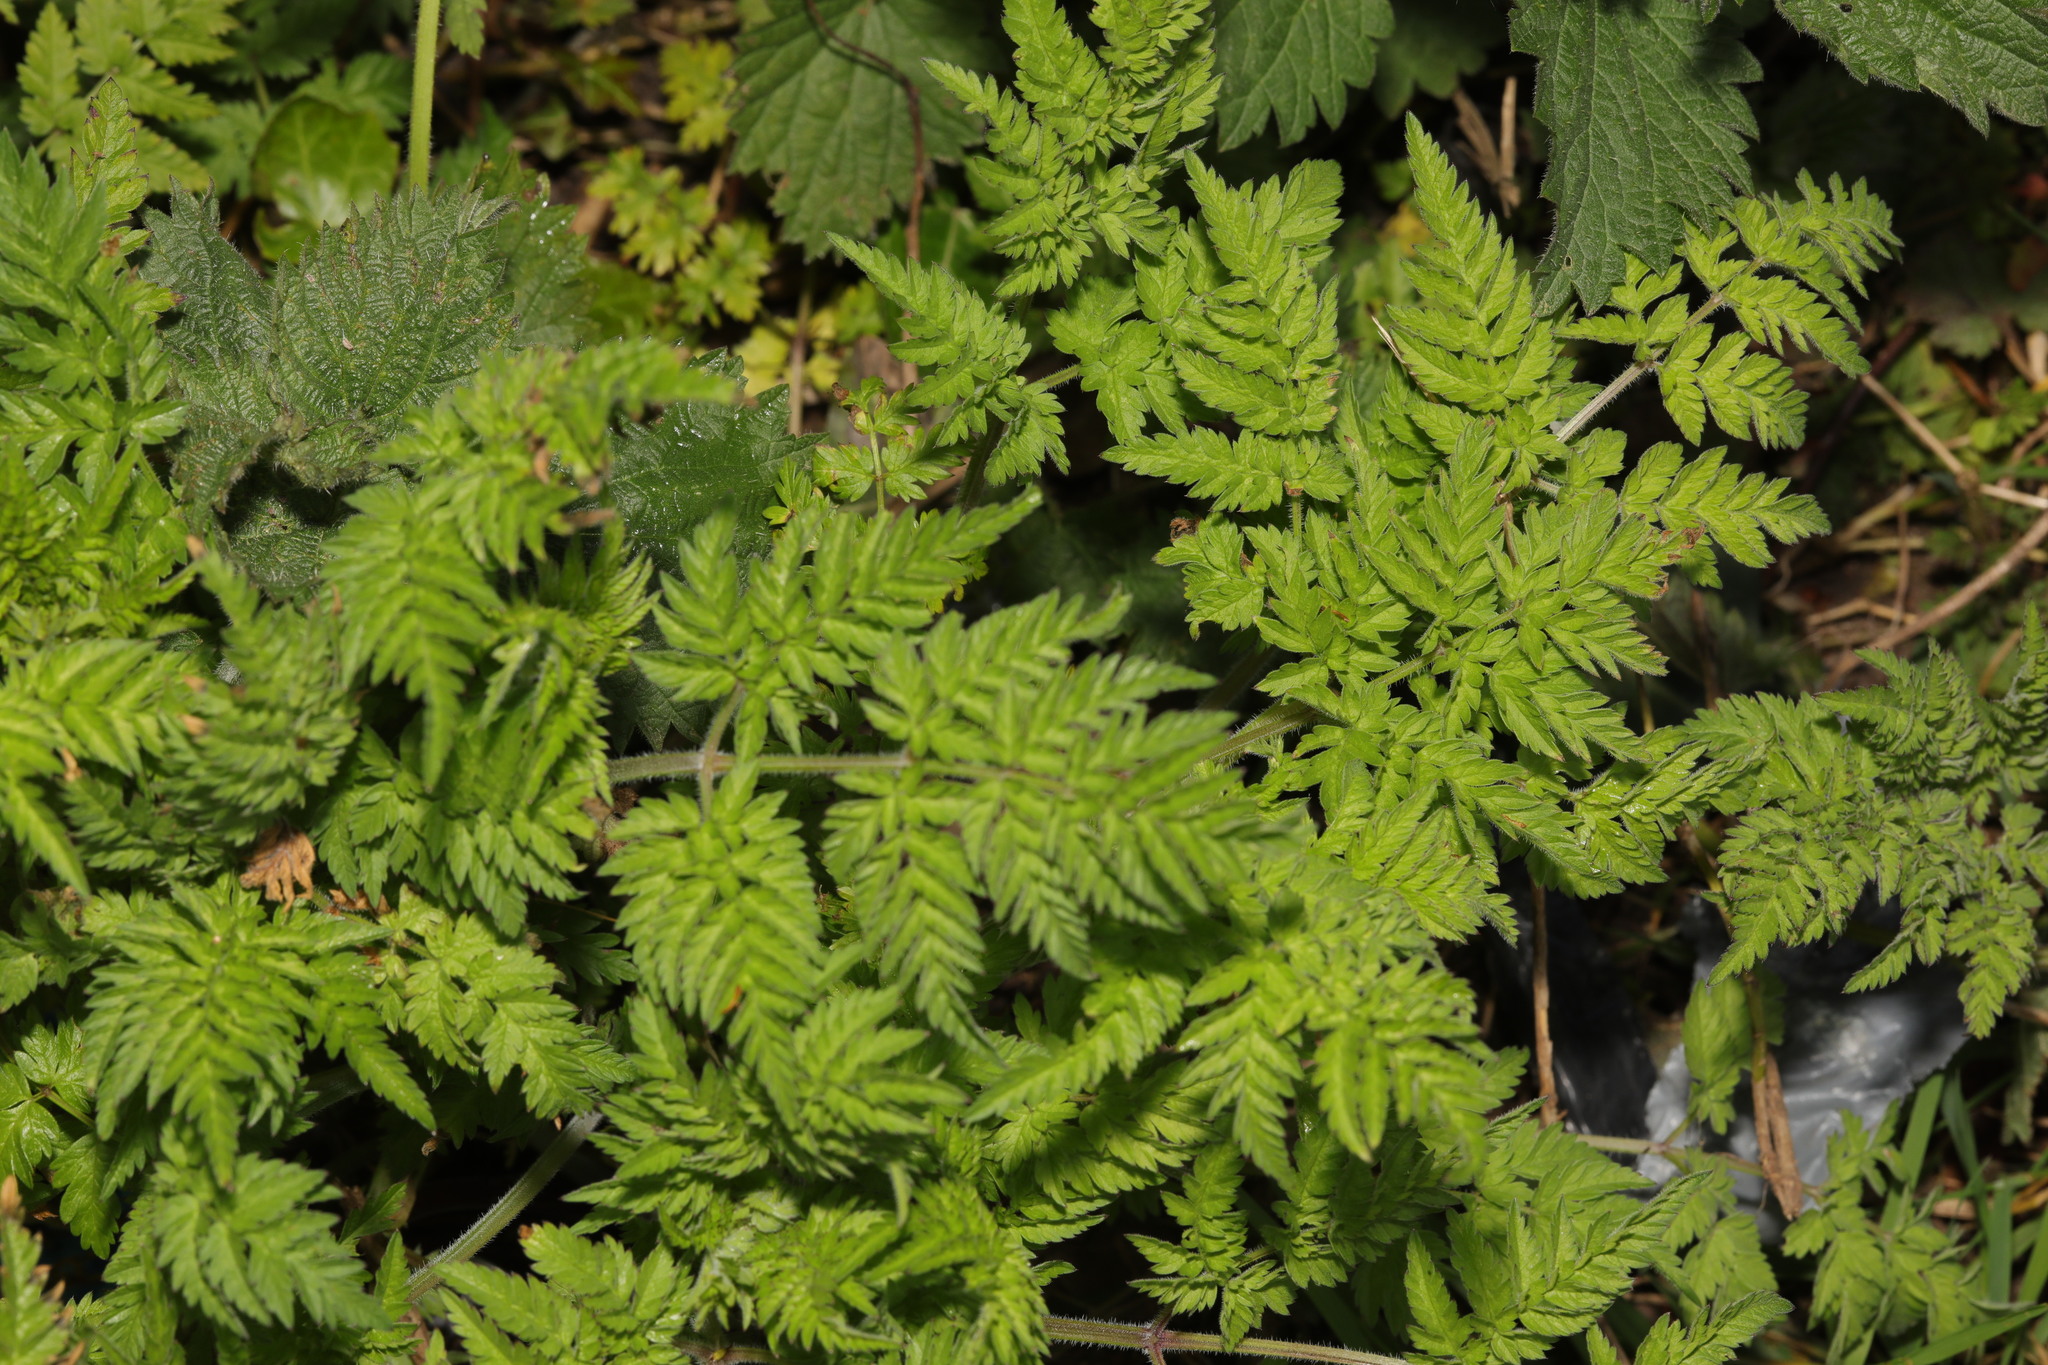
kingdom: Plantae
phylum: Tracheophyta
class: Magnoliopsida
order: Apiales
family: Apiaceae
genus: Anthriscus
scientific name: Anthriscus sylvestris
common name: Cow parsley
